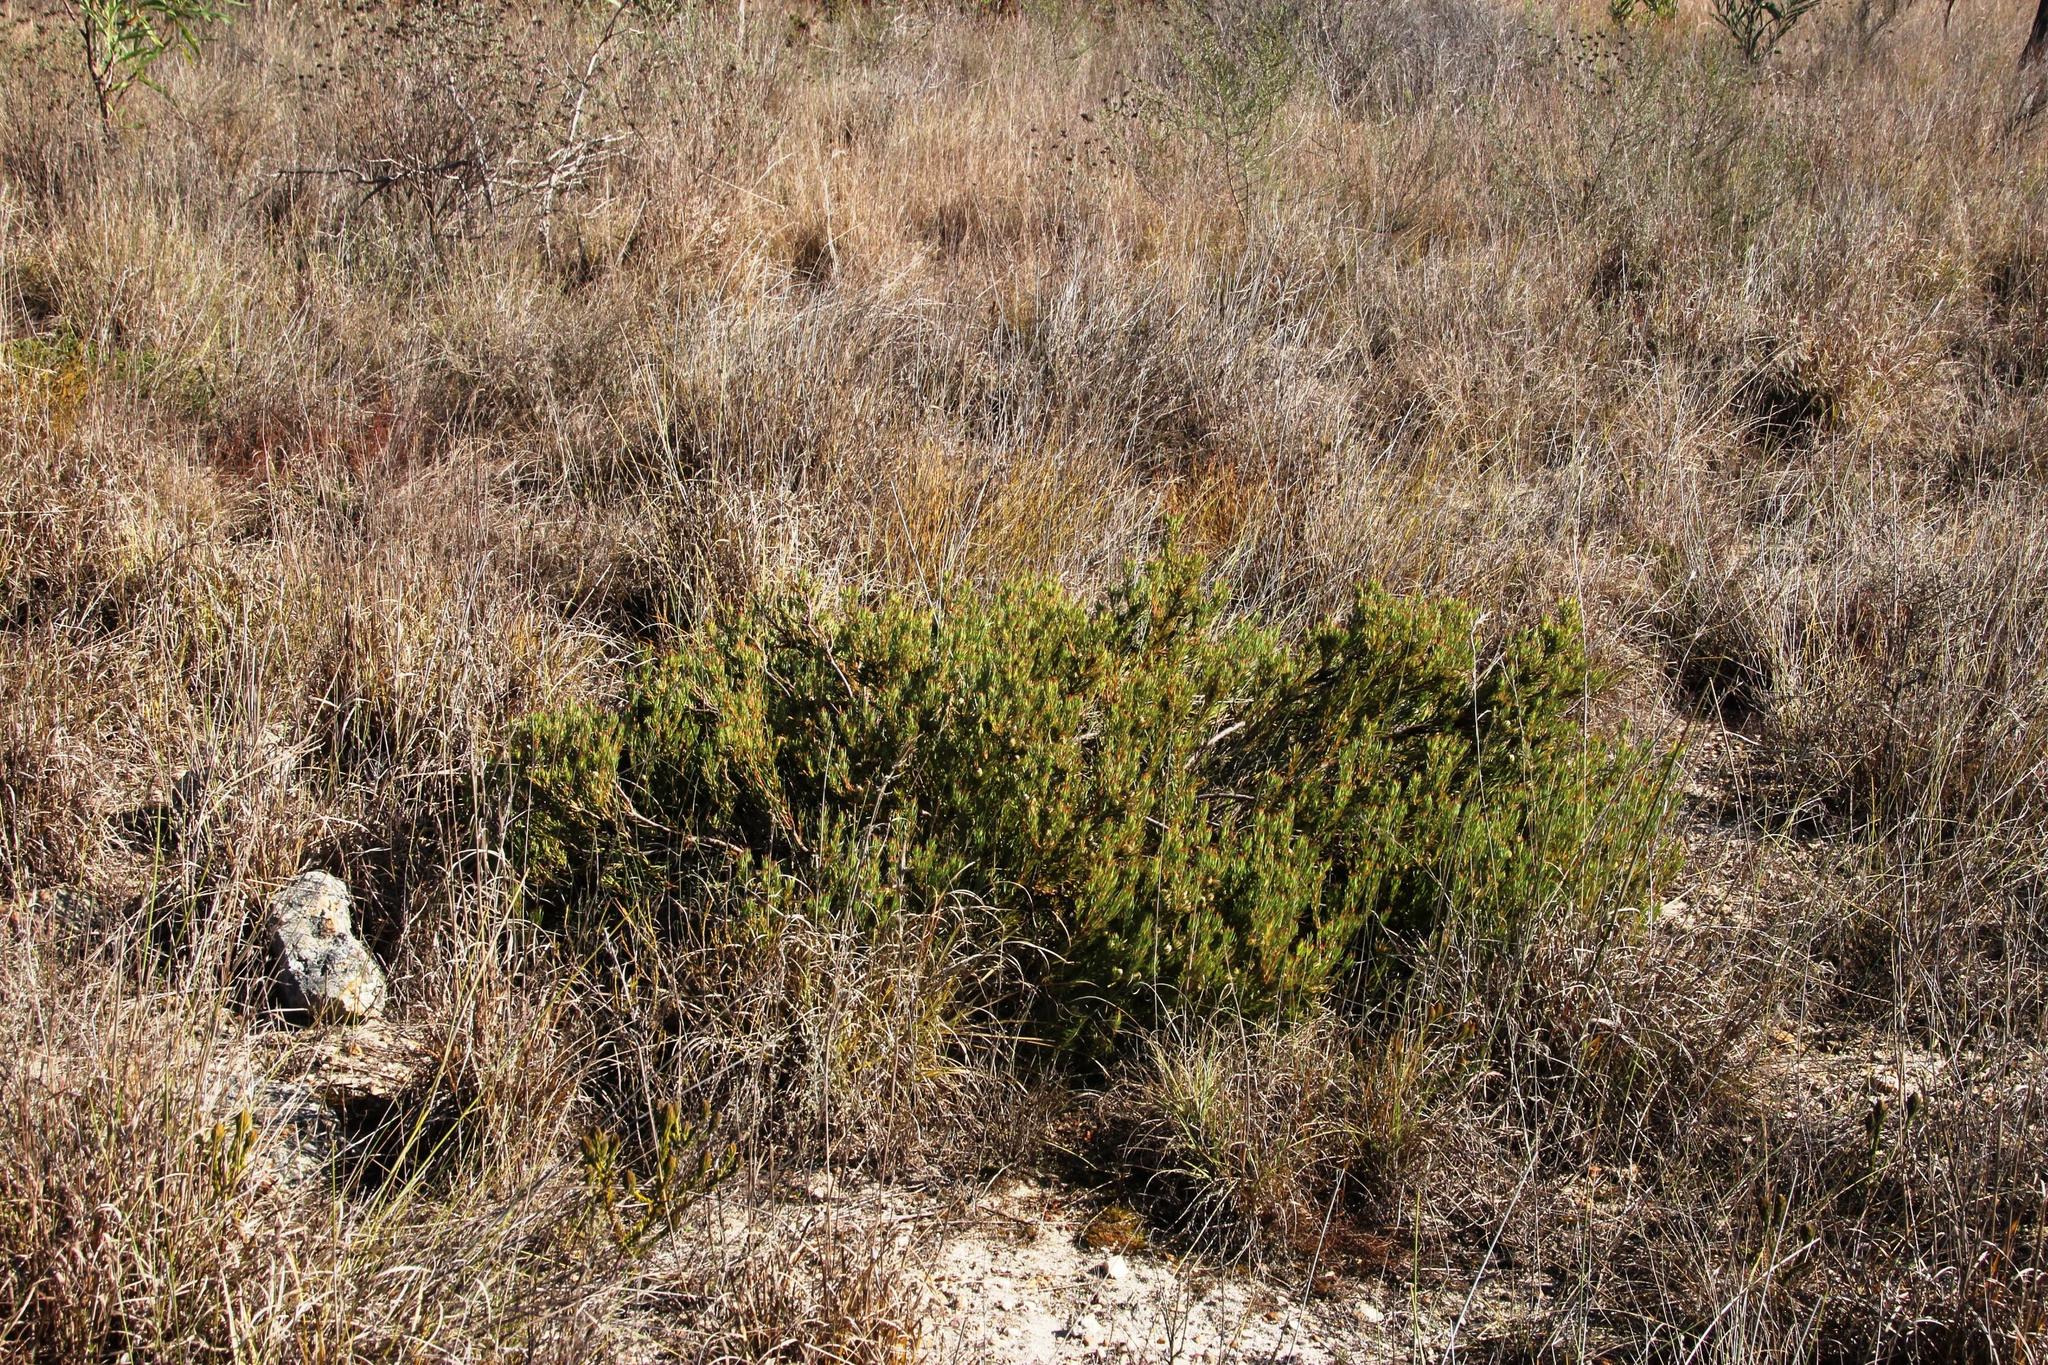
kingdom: Plantae
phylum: Tracheophyta
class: Magnoliopsida
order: Proteales
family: Proteaceae
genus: Leucadendron
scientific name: Leucadendron lanigerum
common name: Shale conebush
